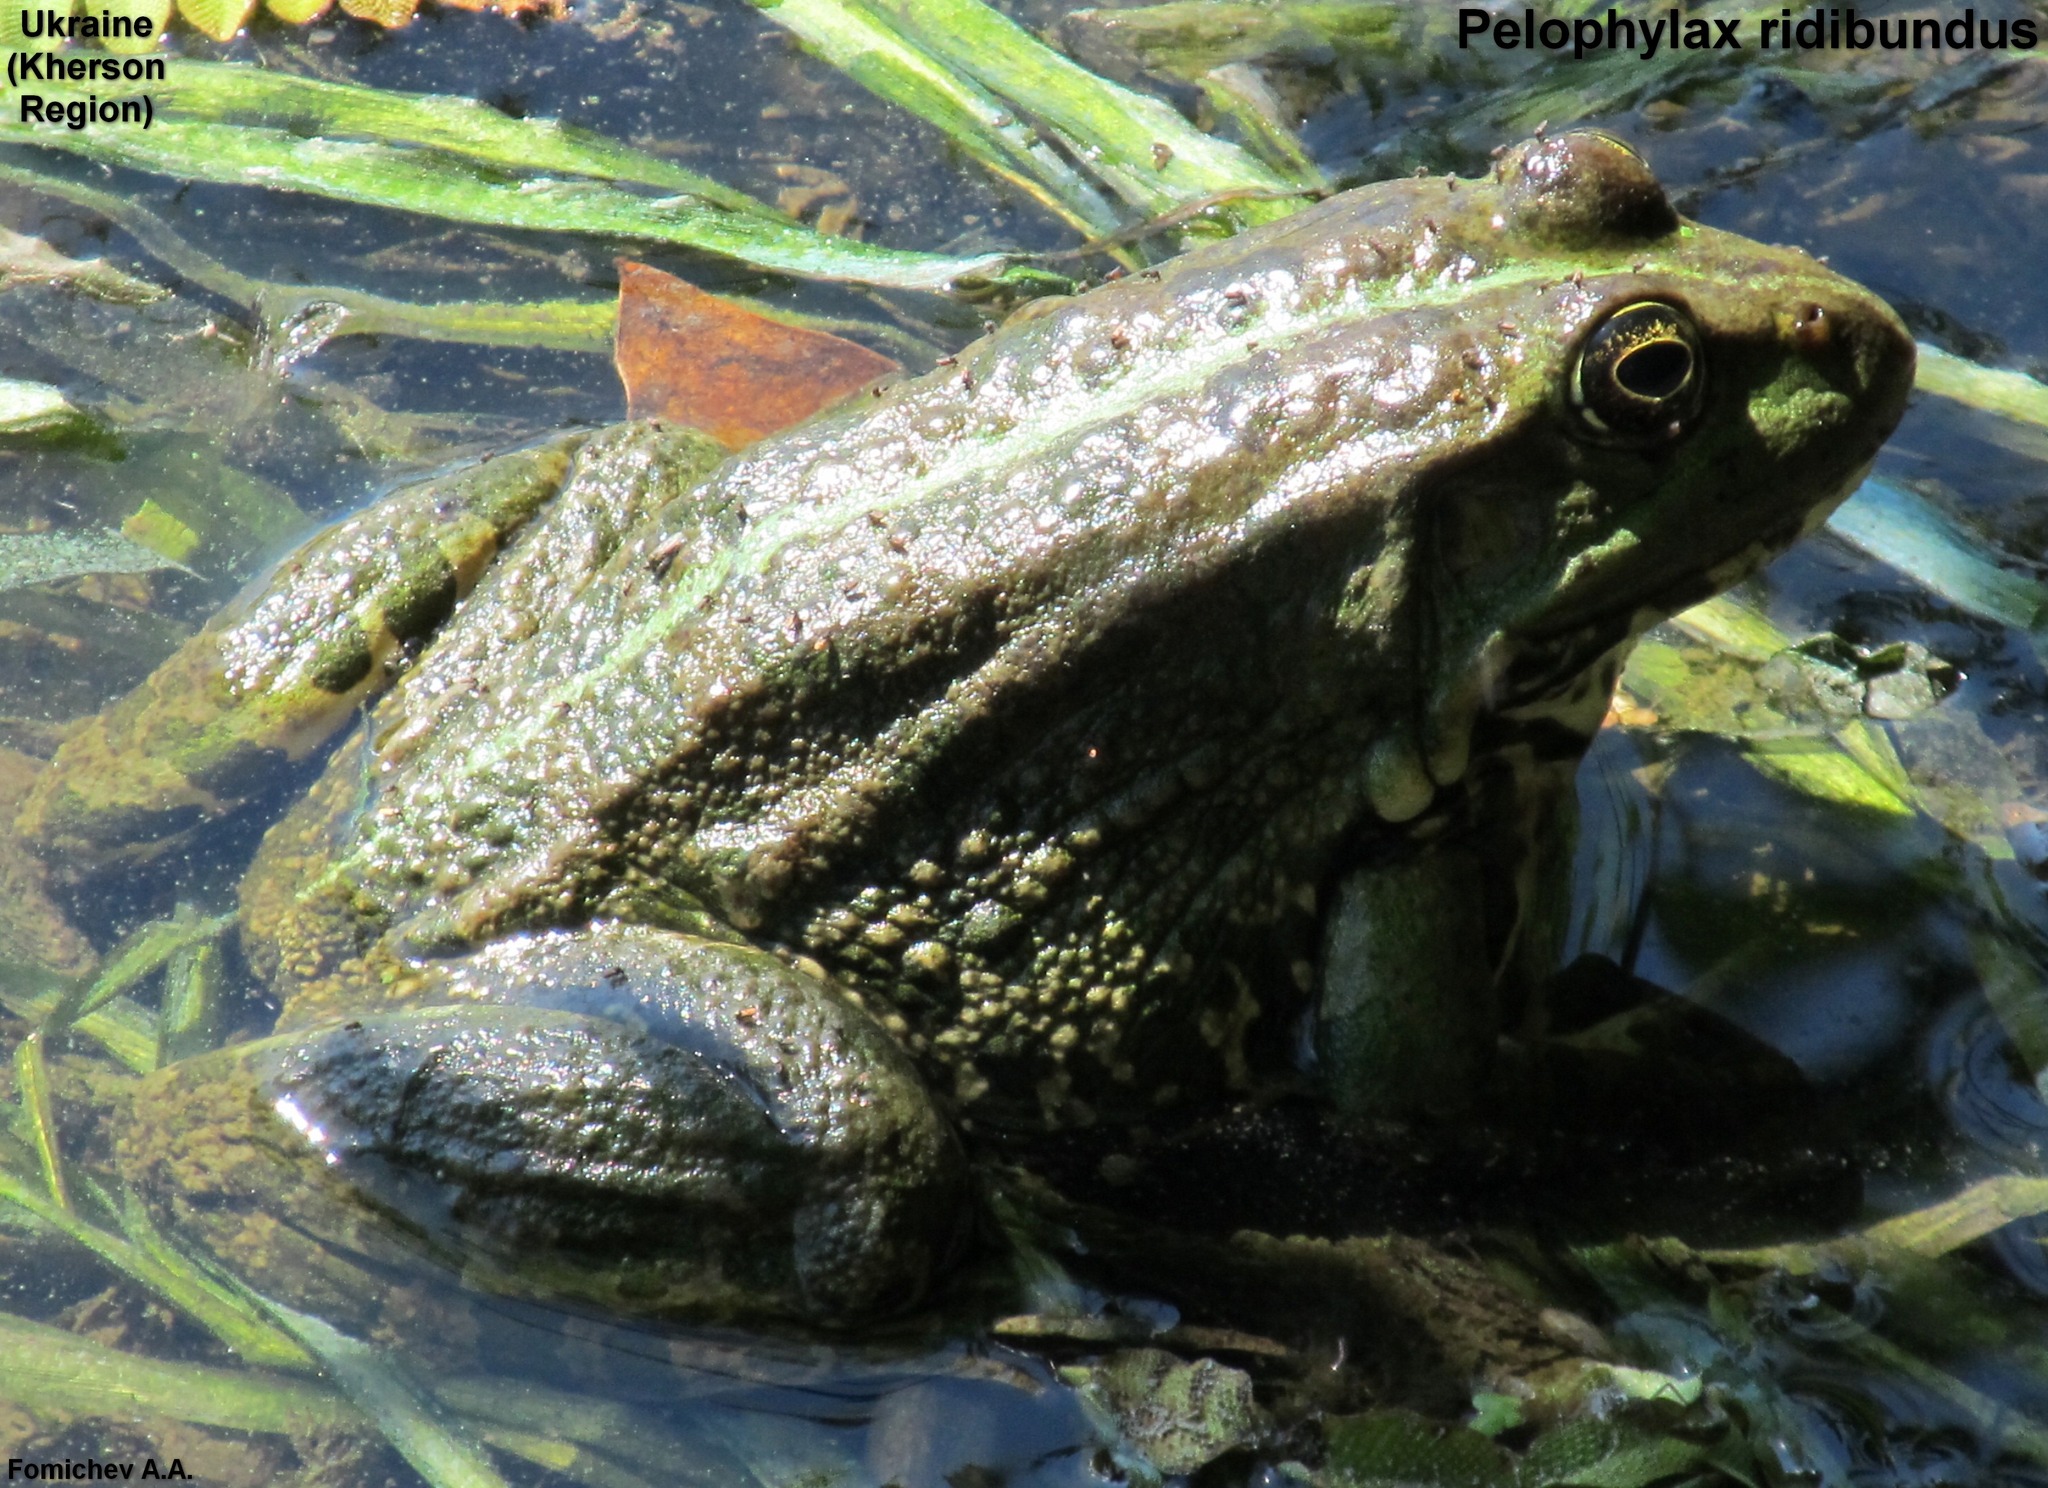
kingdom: Animalia
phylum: Chordata
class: Amphibia
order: Anura
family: Ranidae
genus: Pelophylax
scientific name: Pelophylax ridibundus
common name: Marsh frog
